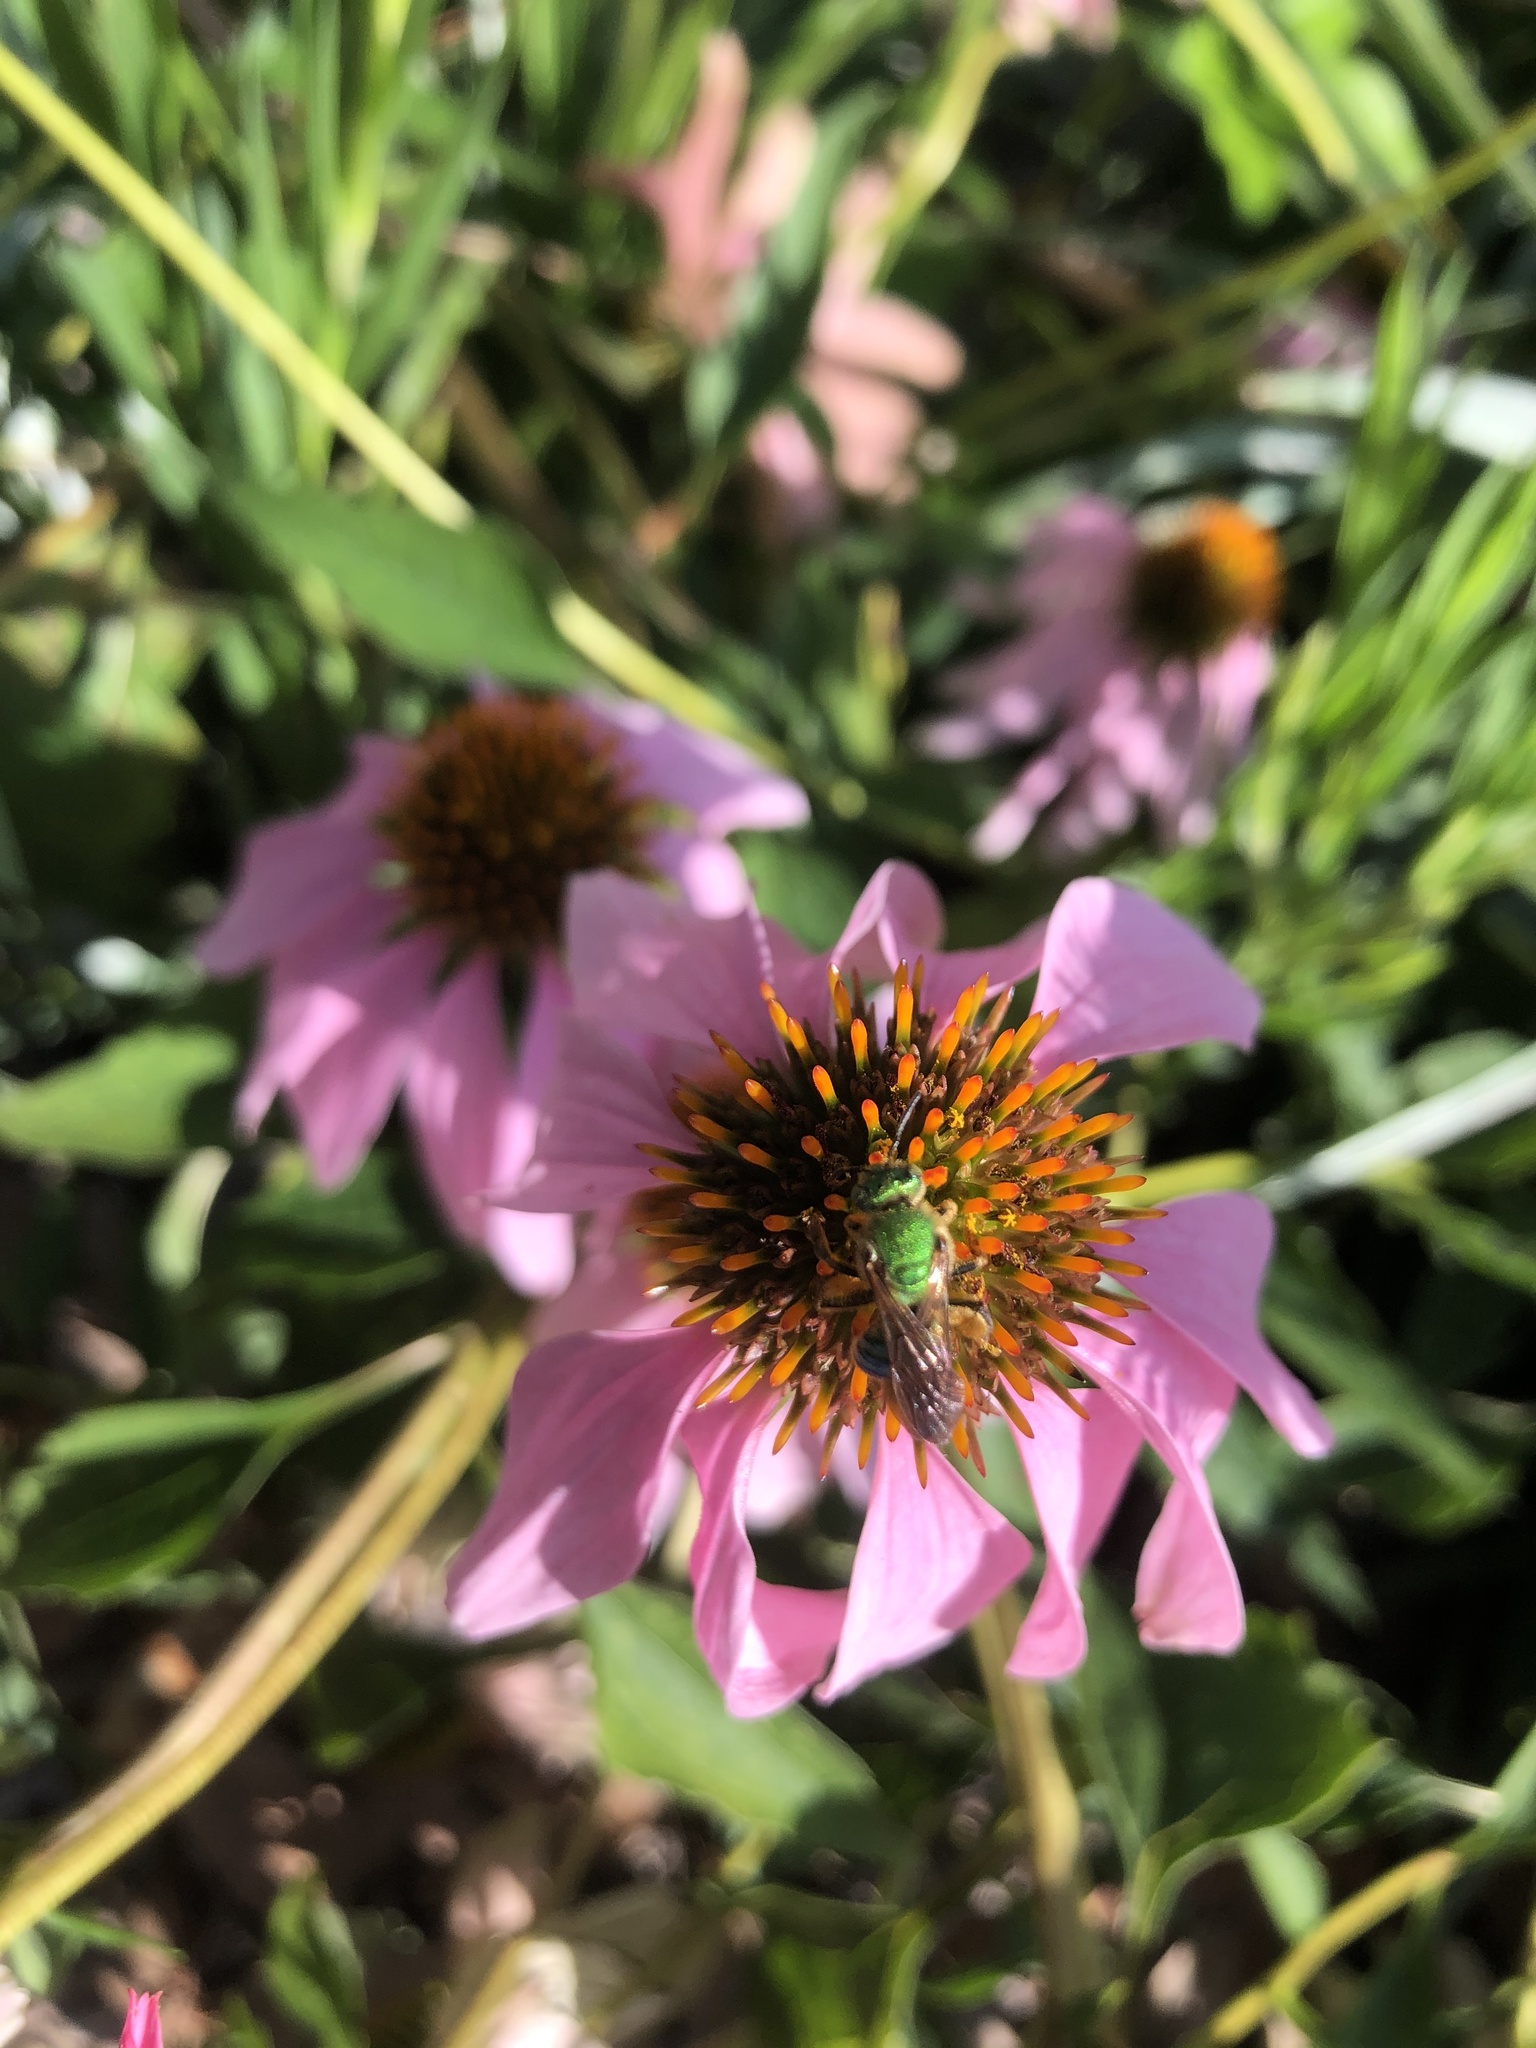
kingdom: Animalia
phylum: Arthropoda
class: Insecta
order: Hymenoptera
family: Halictidae
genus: Agapostemon
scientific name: Agapostemon splendens
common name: Brown-winged striped sweat bee
